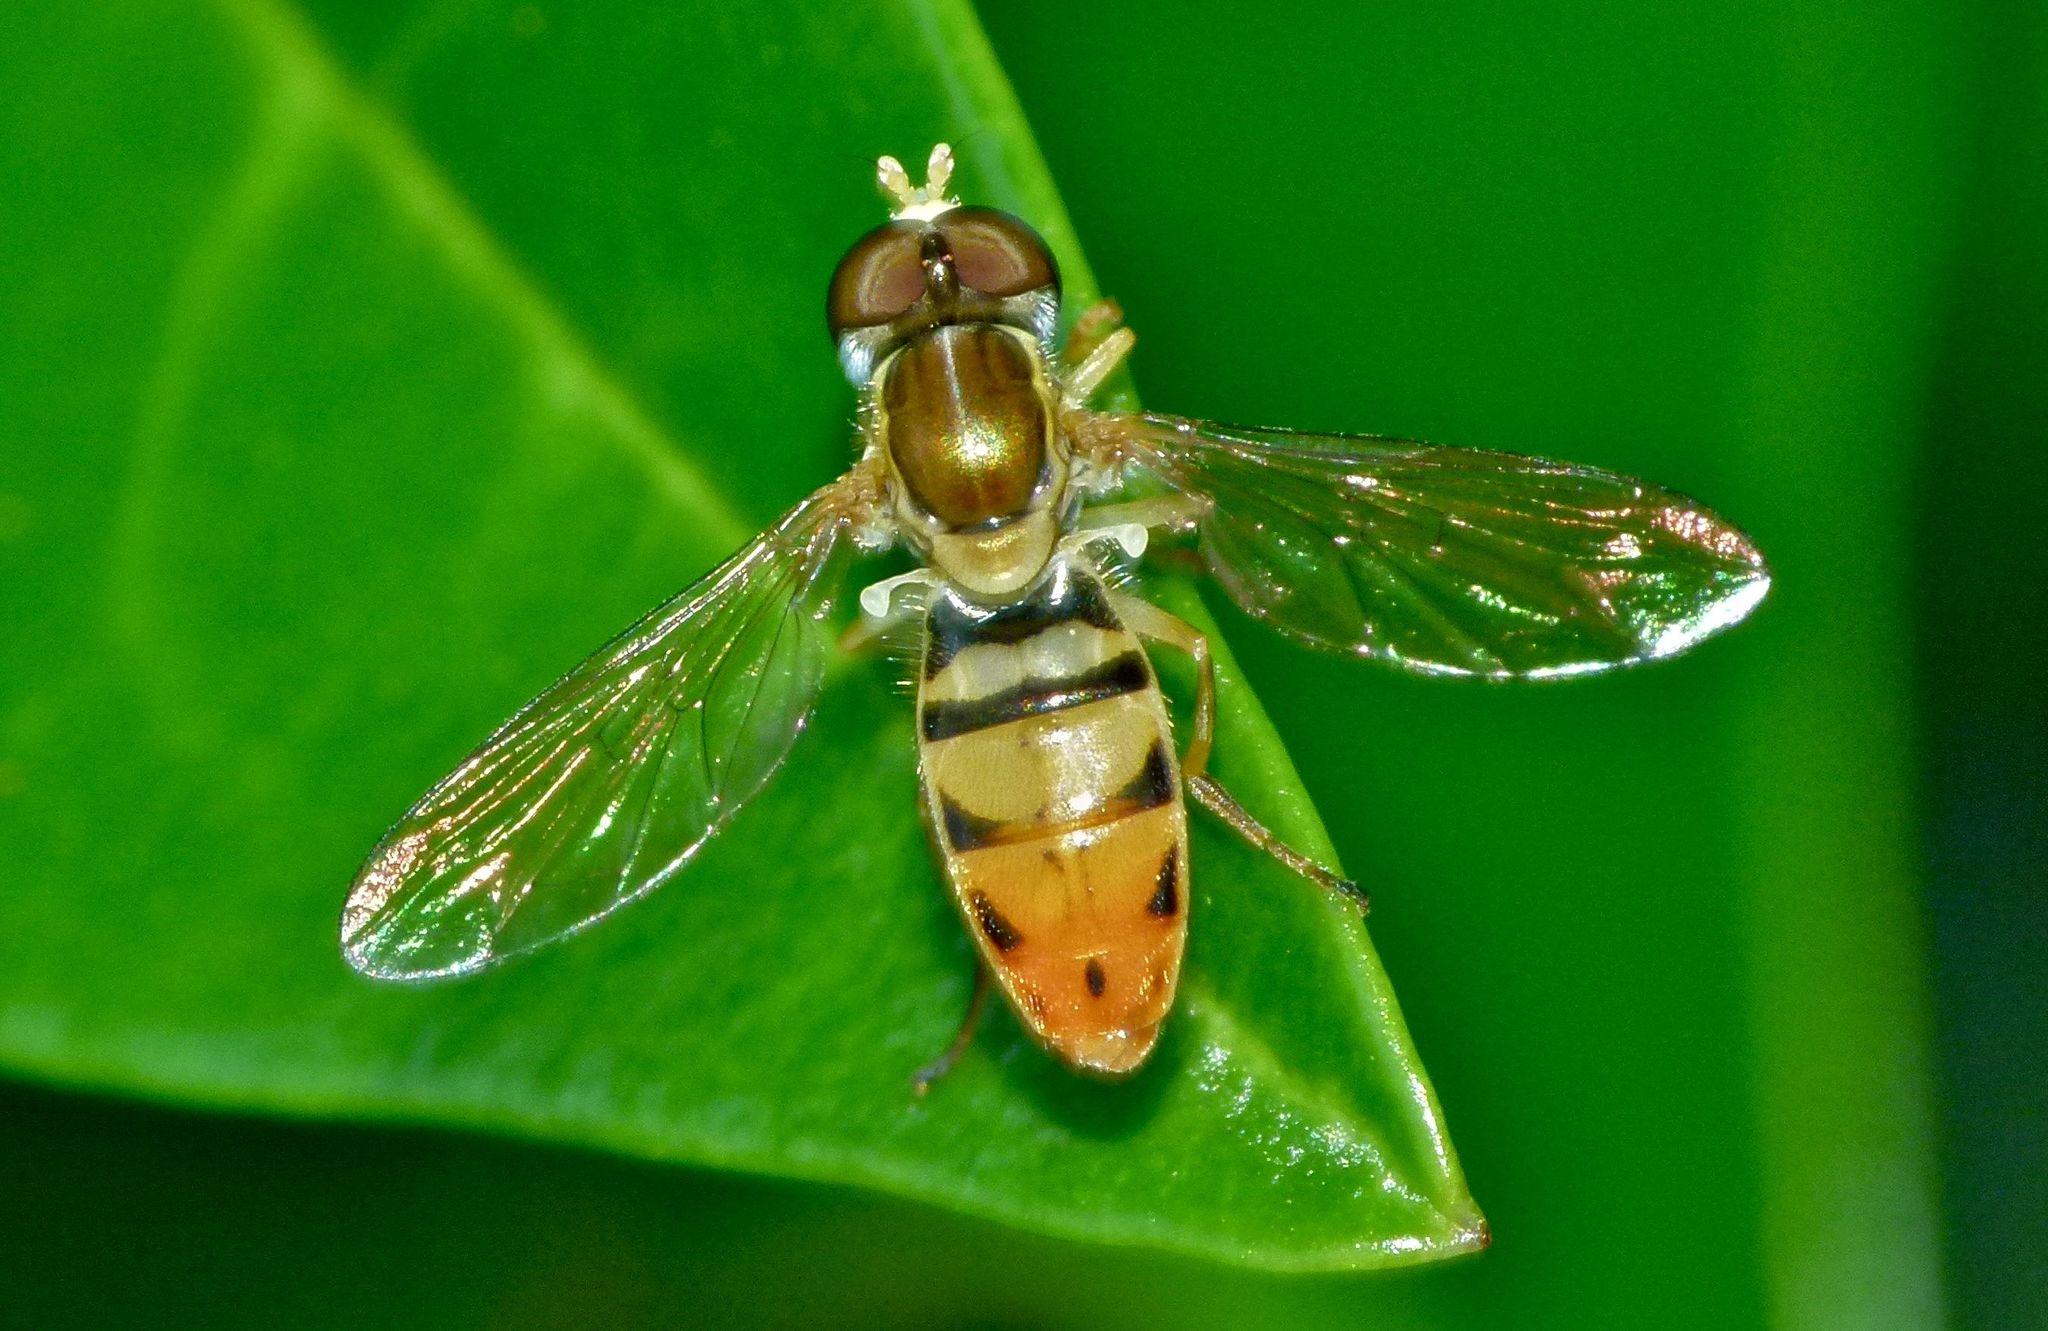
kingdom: Animalia
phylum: Arthropoda
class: Insecta
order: Diptera
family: Syrphidae
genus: Toxomerus
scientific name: Toxomerus marginatus
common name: Syrphid fly
